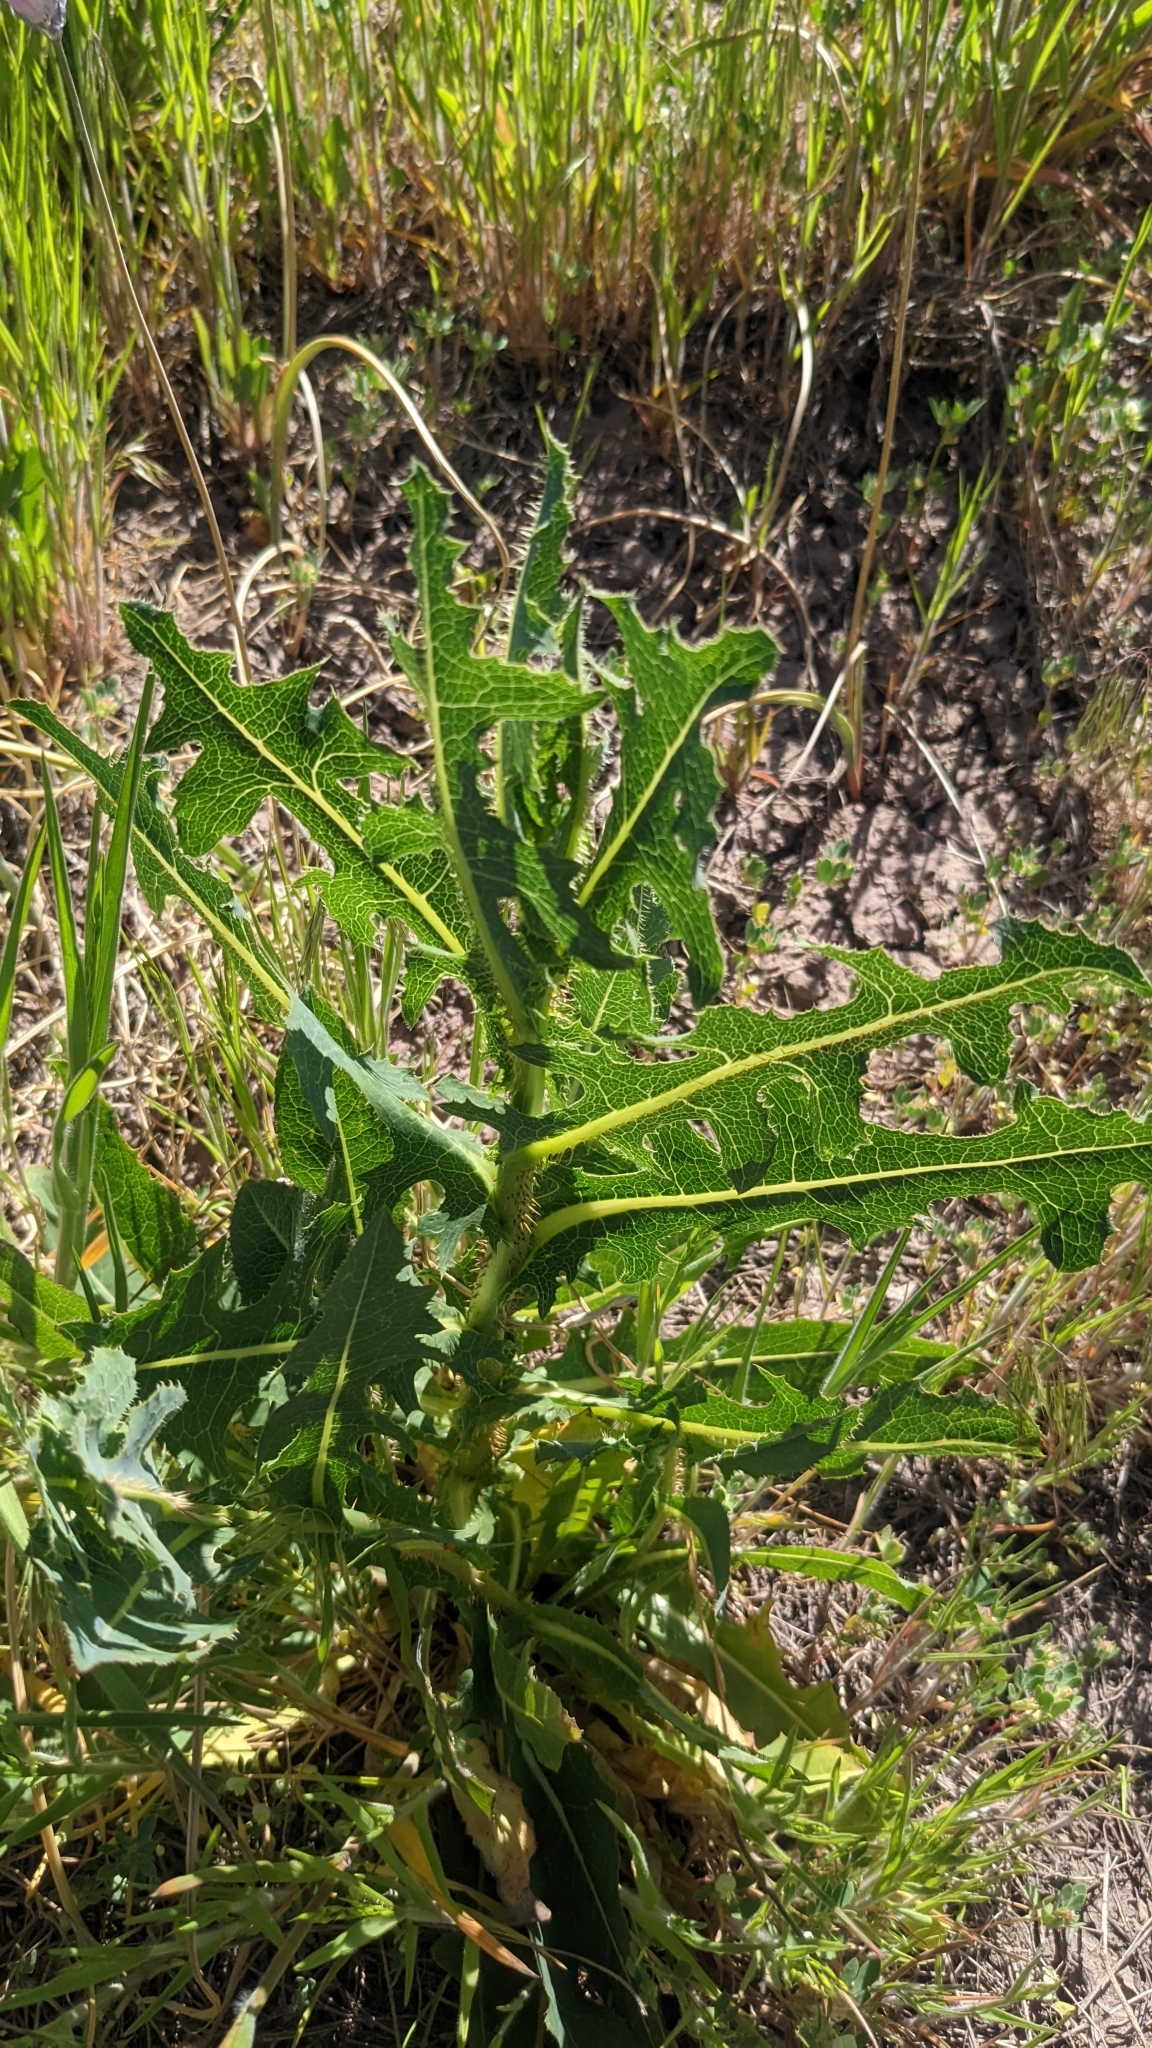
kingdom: Plantae
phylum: Tracheophyta
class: Magnoliopsida
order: Asterales
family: Asteraceae
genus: Lactuca
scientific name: Lactuca serriola
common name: Prickly lettuce
